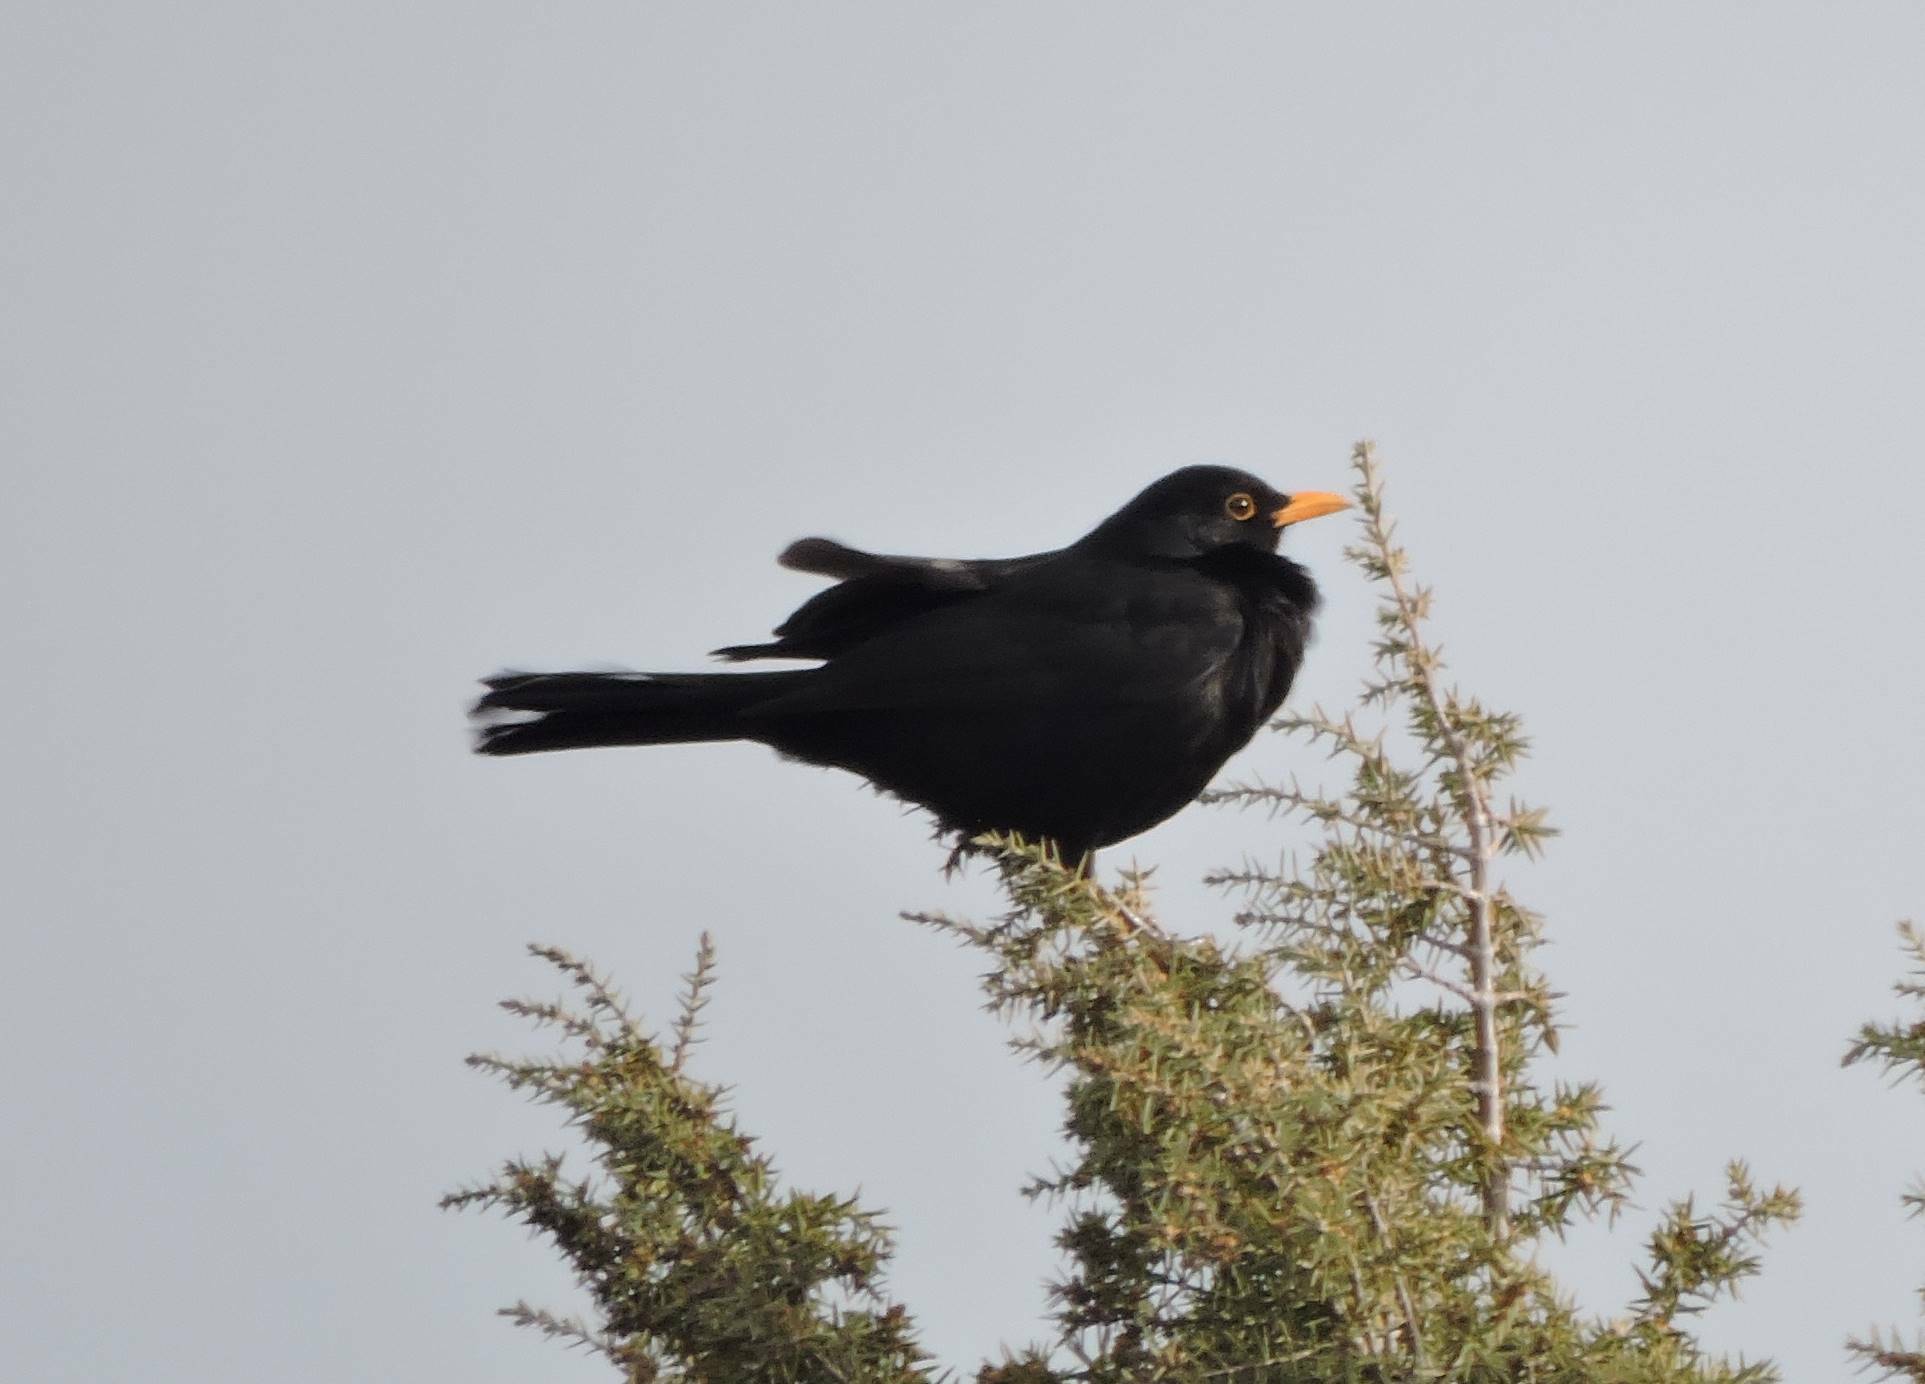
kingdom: Animalia
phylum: Chordata
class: Aves
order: Passeriformes
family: Turdidae
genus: Turdus
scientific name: Turdus merula
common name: Common blackbird
